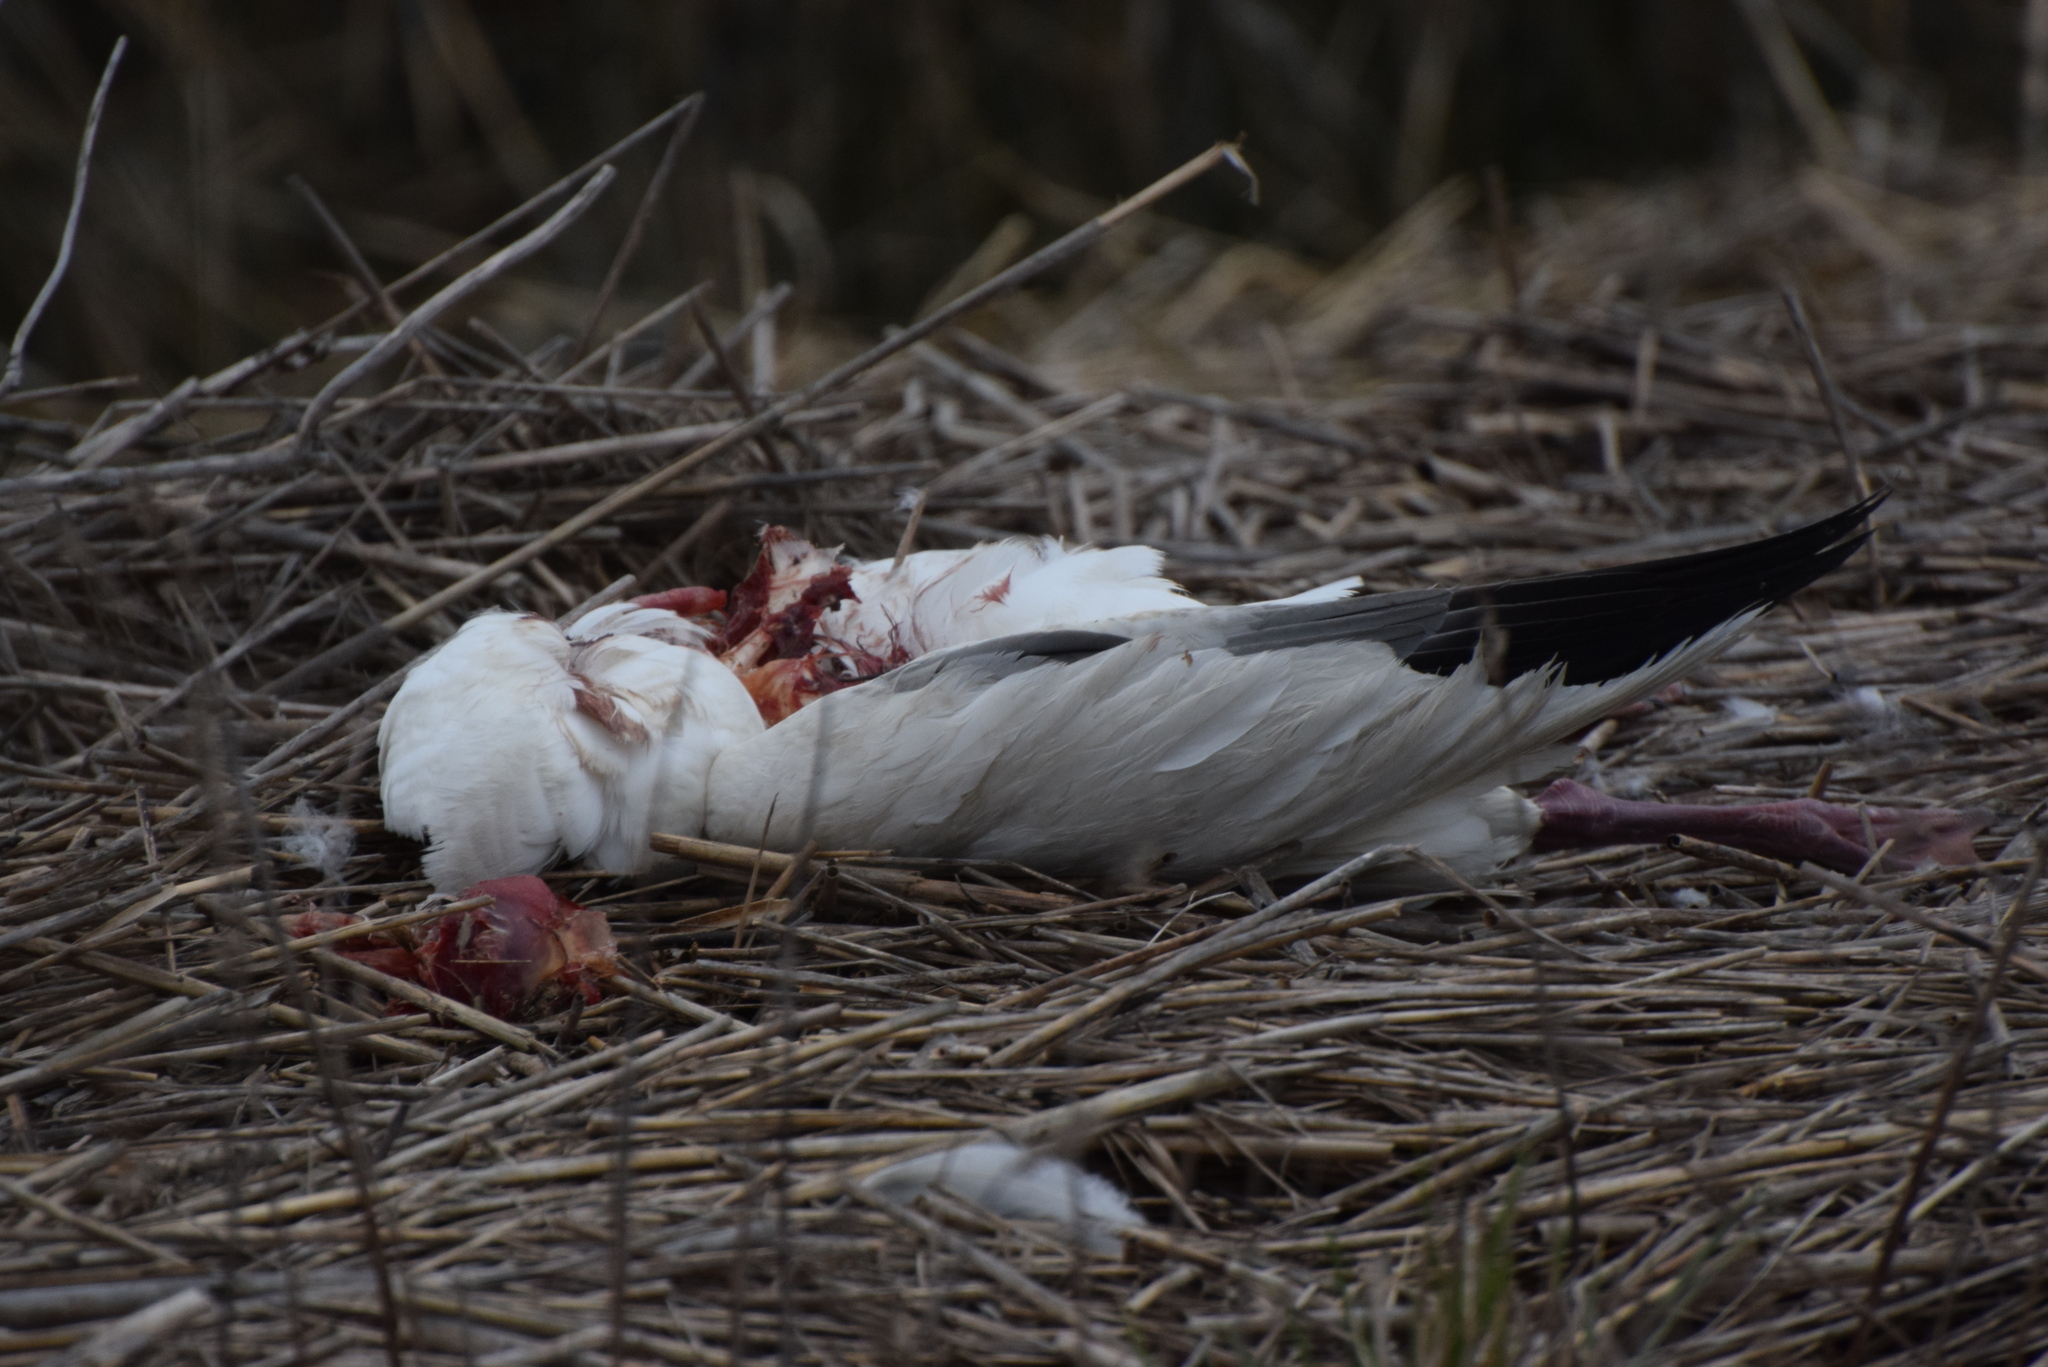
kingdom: Animalia
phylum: Chordata
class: Aves
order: Anseriformes
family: Anatidae
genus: Anser
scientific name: Anser caerulescens
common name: Snow goose
